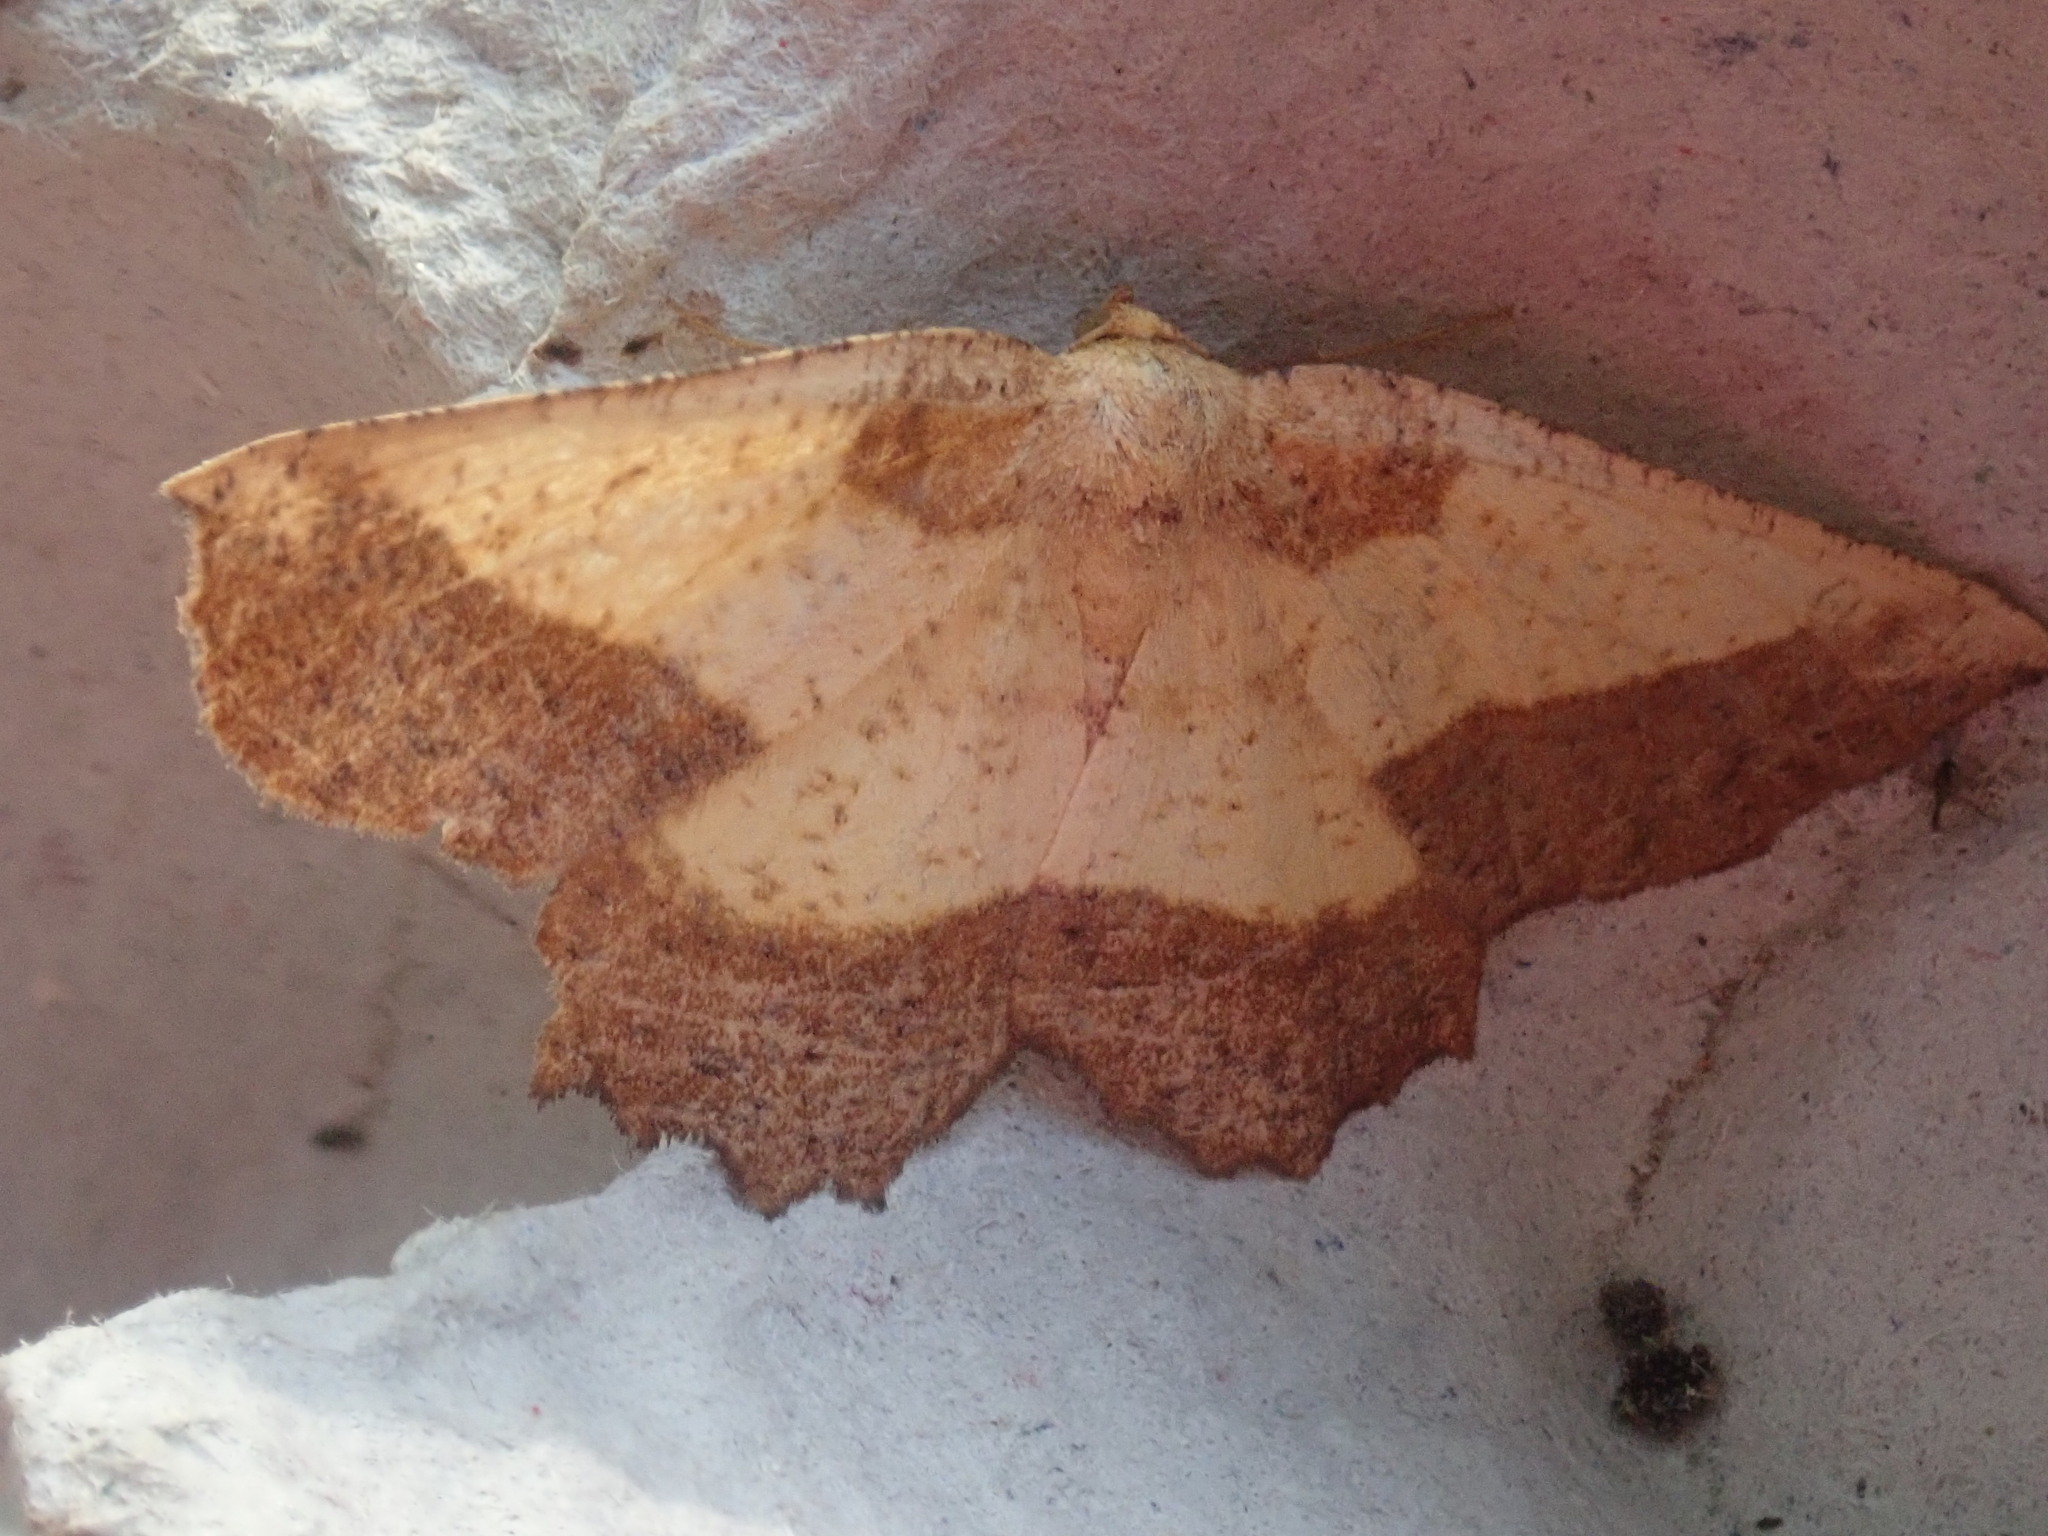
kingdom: Animalia
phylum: Arthropoda
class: Insecta
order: Lepidoptera
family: Geometridae
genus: Euchlaena
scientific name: Euchlaena serrata
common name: Saw wing
